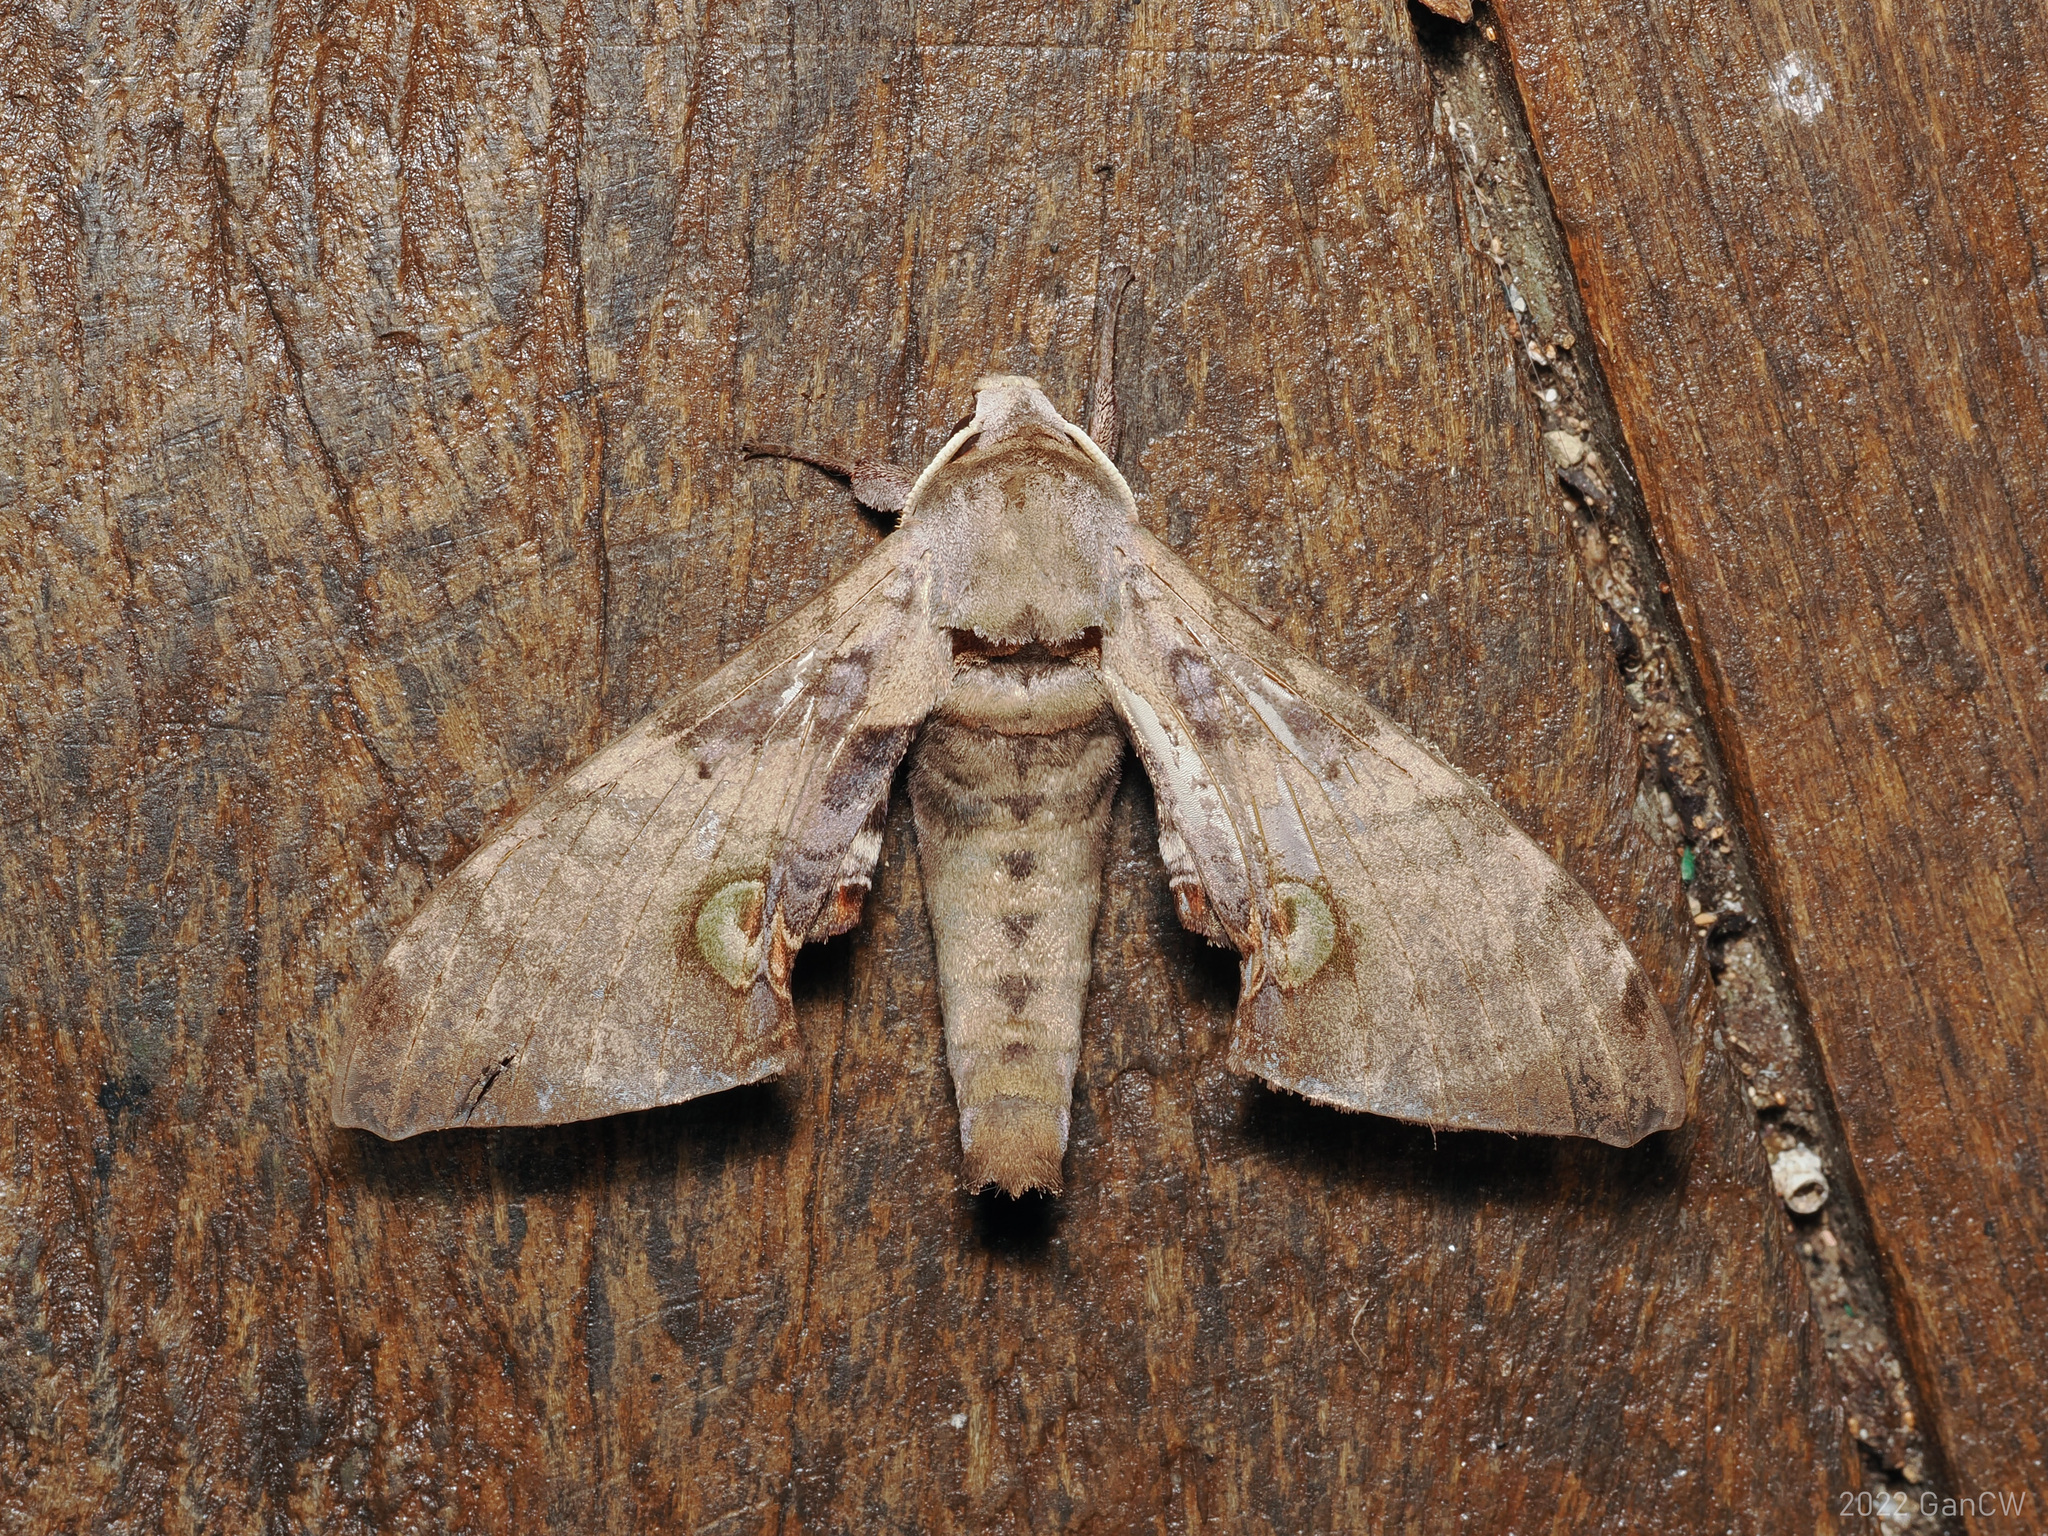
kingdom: Animalia
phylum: Arthropoda
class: Insecta
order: Lepidoptera
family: Sphingidae
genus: Daphnusa
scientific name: Daphnusa fruhstorferi
